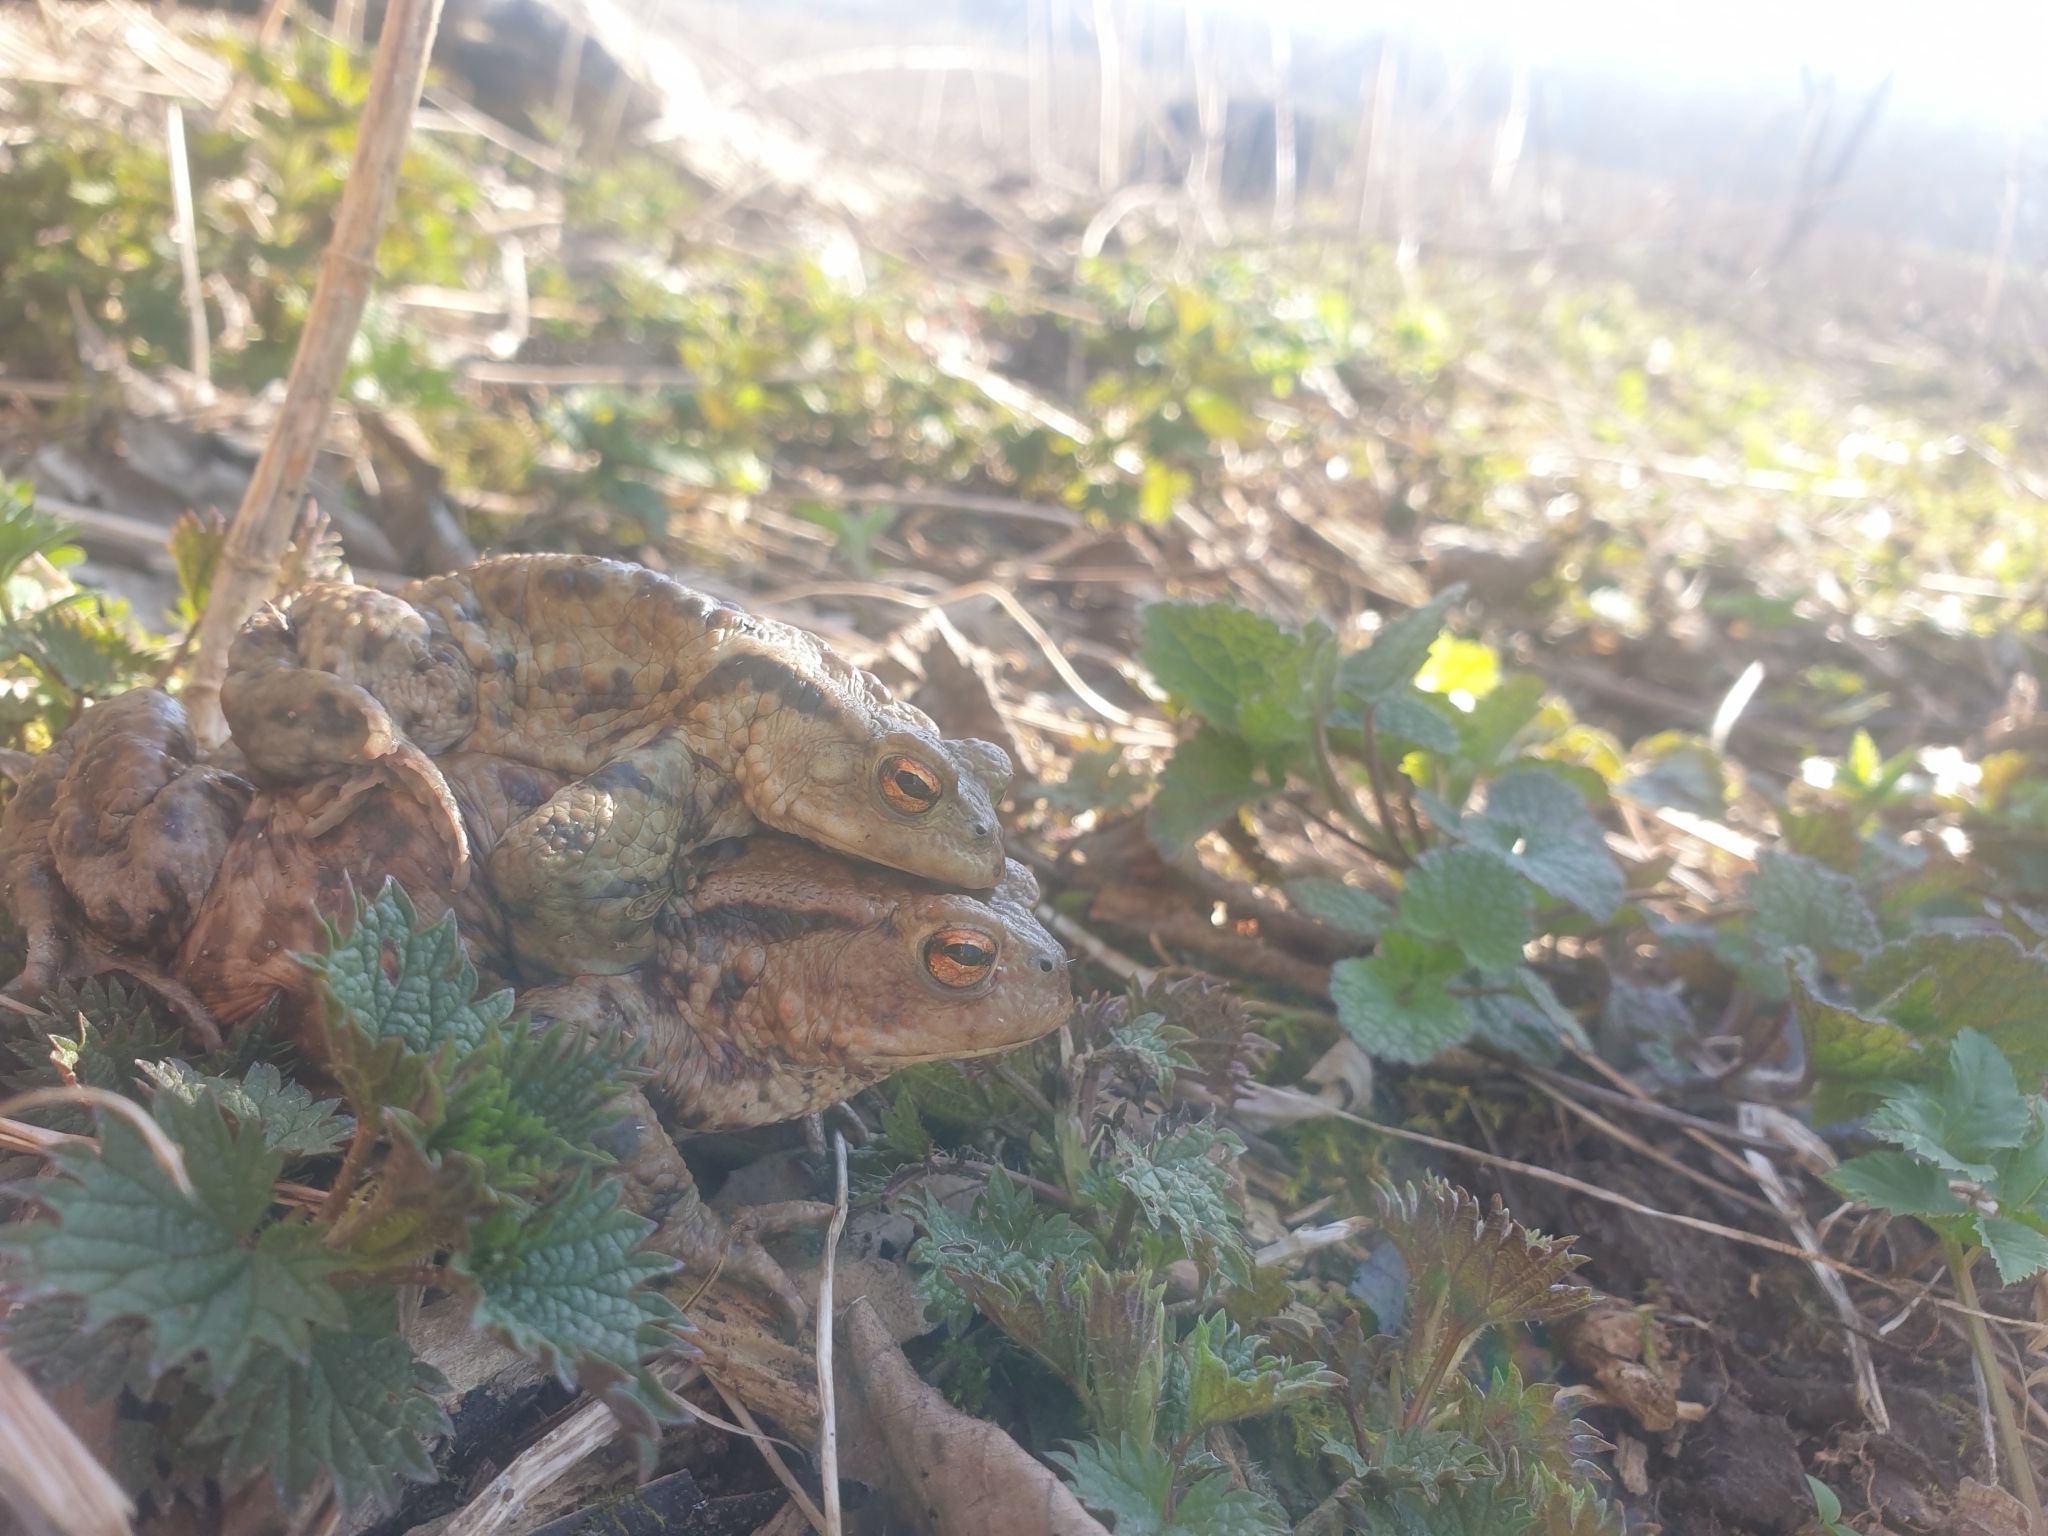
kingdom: Animalia
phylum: Chordata
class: Amphibia
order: Anura
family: Bufonidae
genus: Bufo
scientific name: Bufo bufo
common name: Common toad
